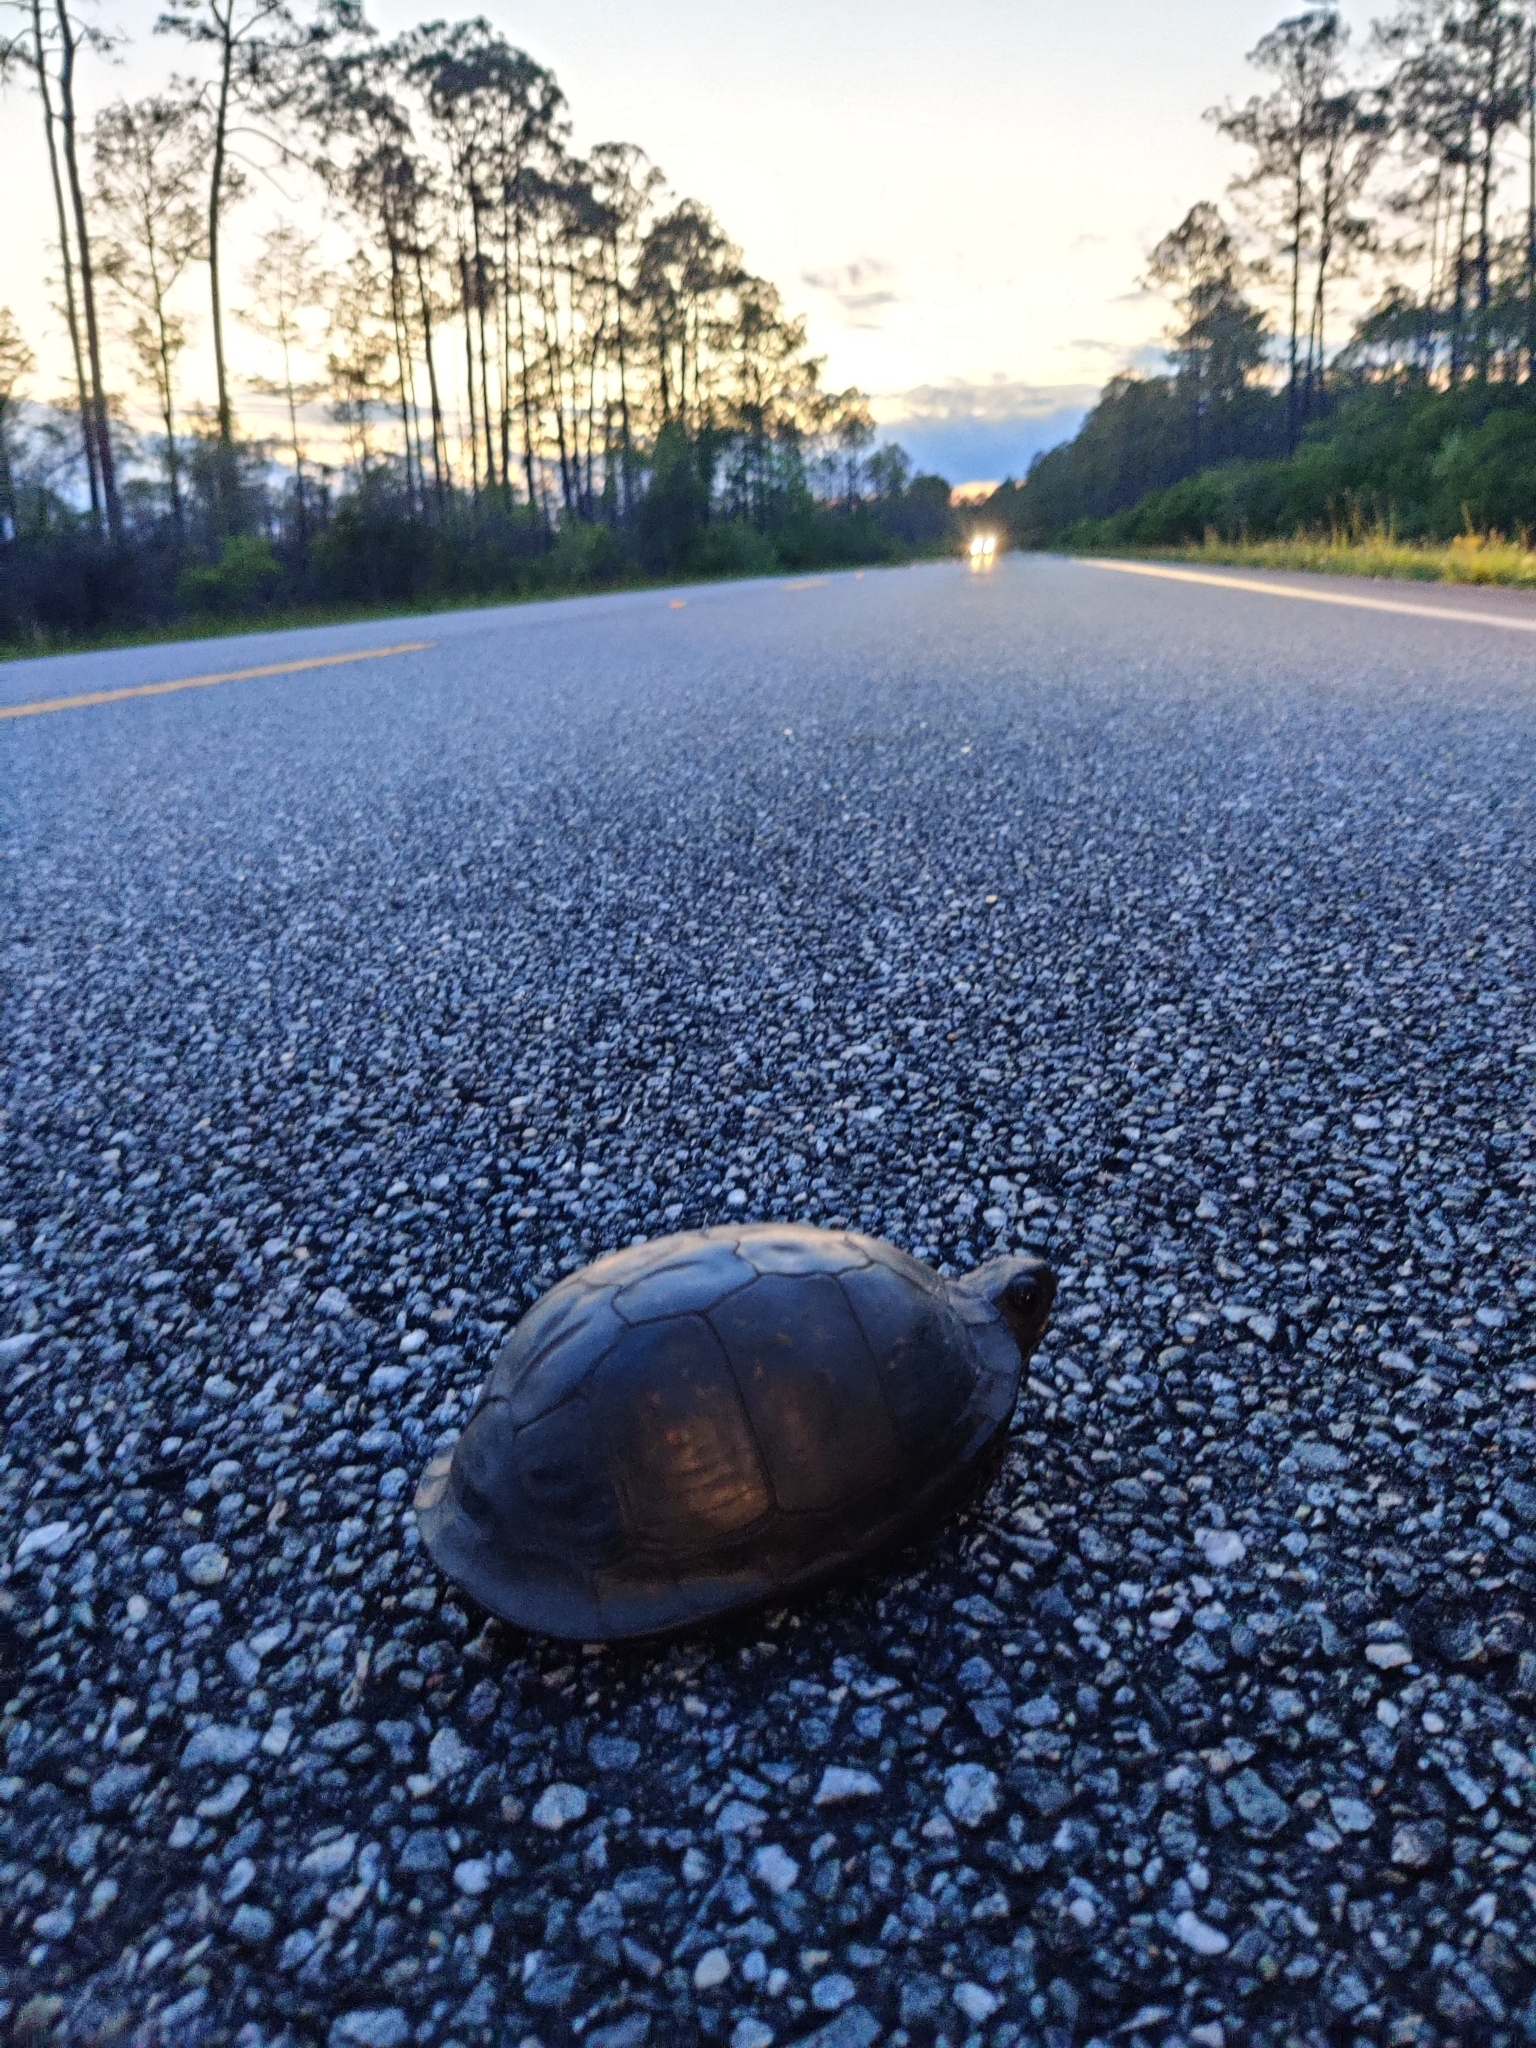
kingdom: Animalia
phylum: Chordata
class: Testudines
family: Emydidae
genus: Terrapene
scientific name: Terrapene carolina
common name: Common box turtle
